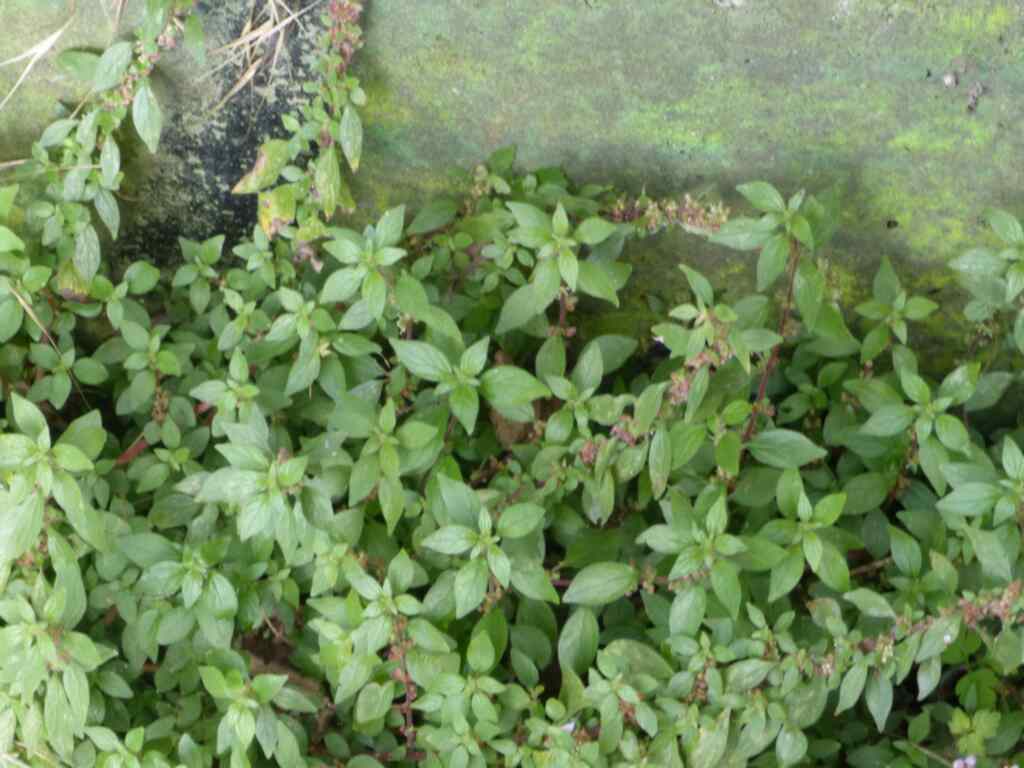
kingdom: Plantae
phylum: Tracheophyta
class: Magnoliopsida
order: Rosales
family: Urticaceae
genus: Parietaria
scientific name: Parietaria judaica
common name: Pellitory-of-the-wall
